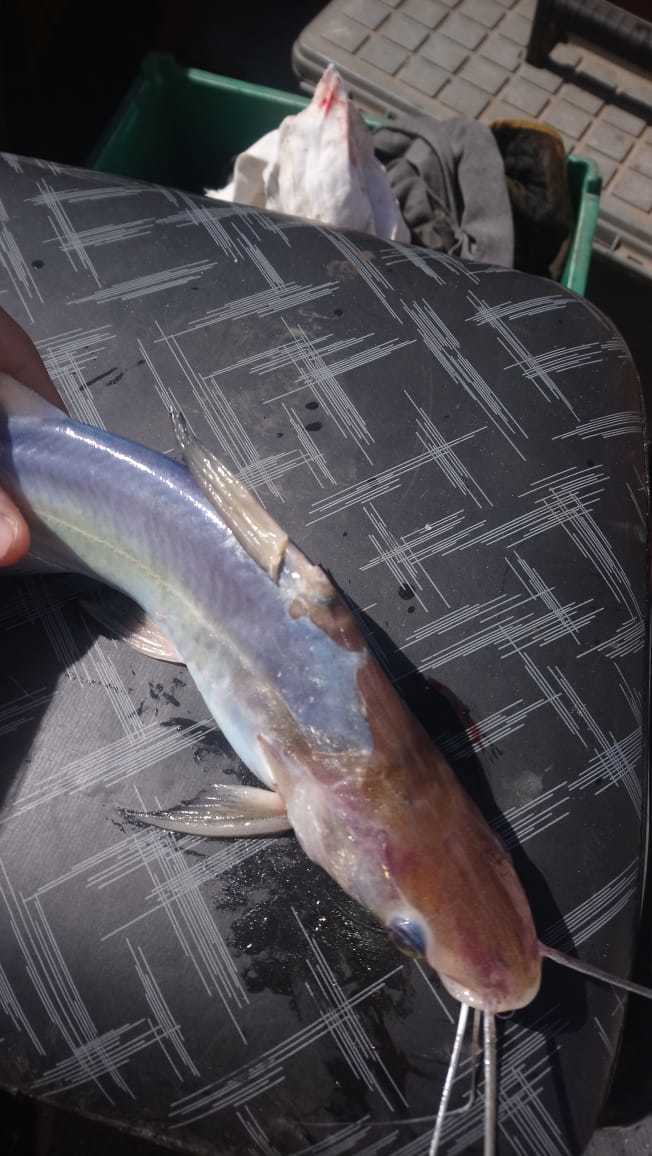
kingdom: Animalia
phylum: Chordata
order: Siluriformes
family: Pimelodidae
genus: Parapimelodus
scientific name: Parapimelodus valenciennis
